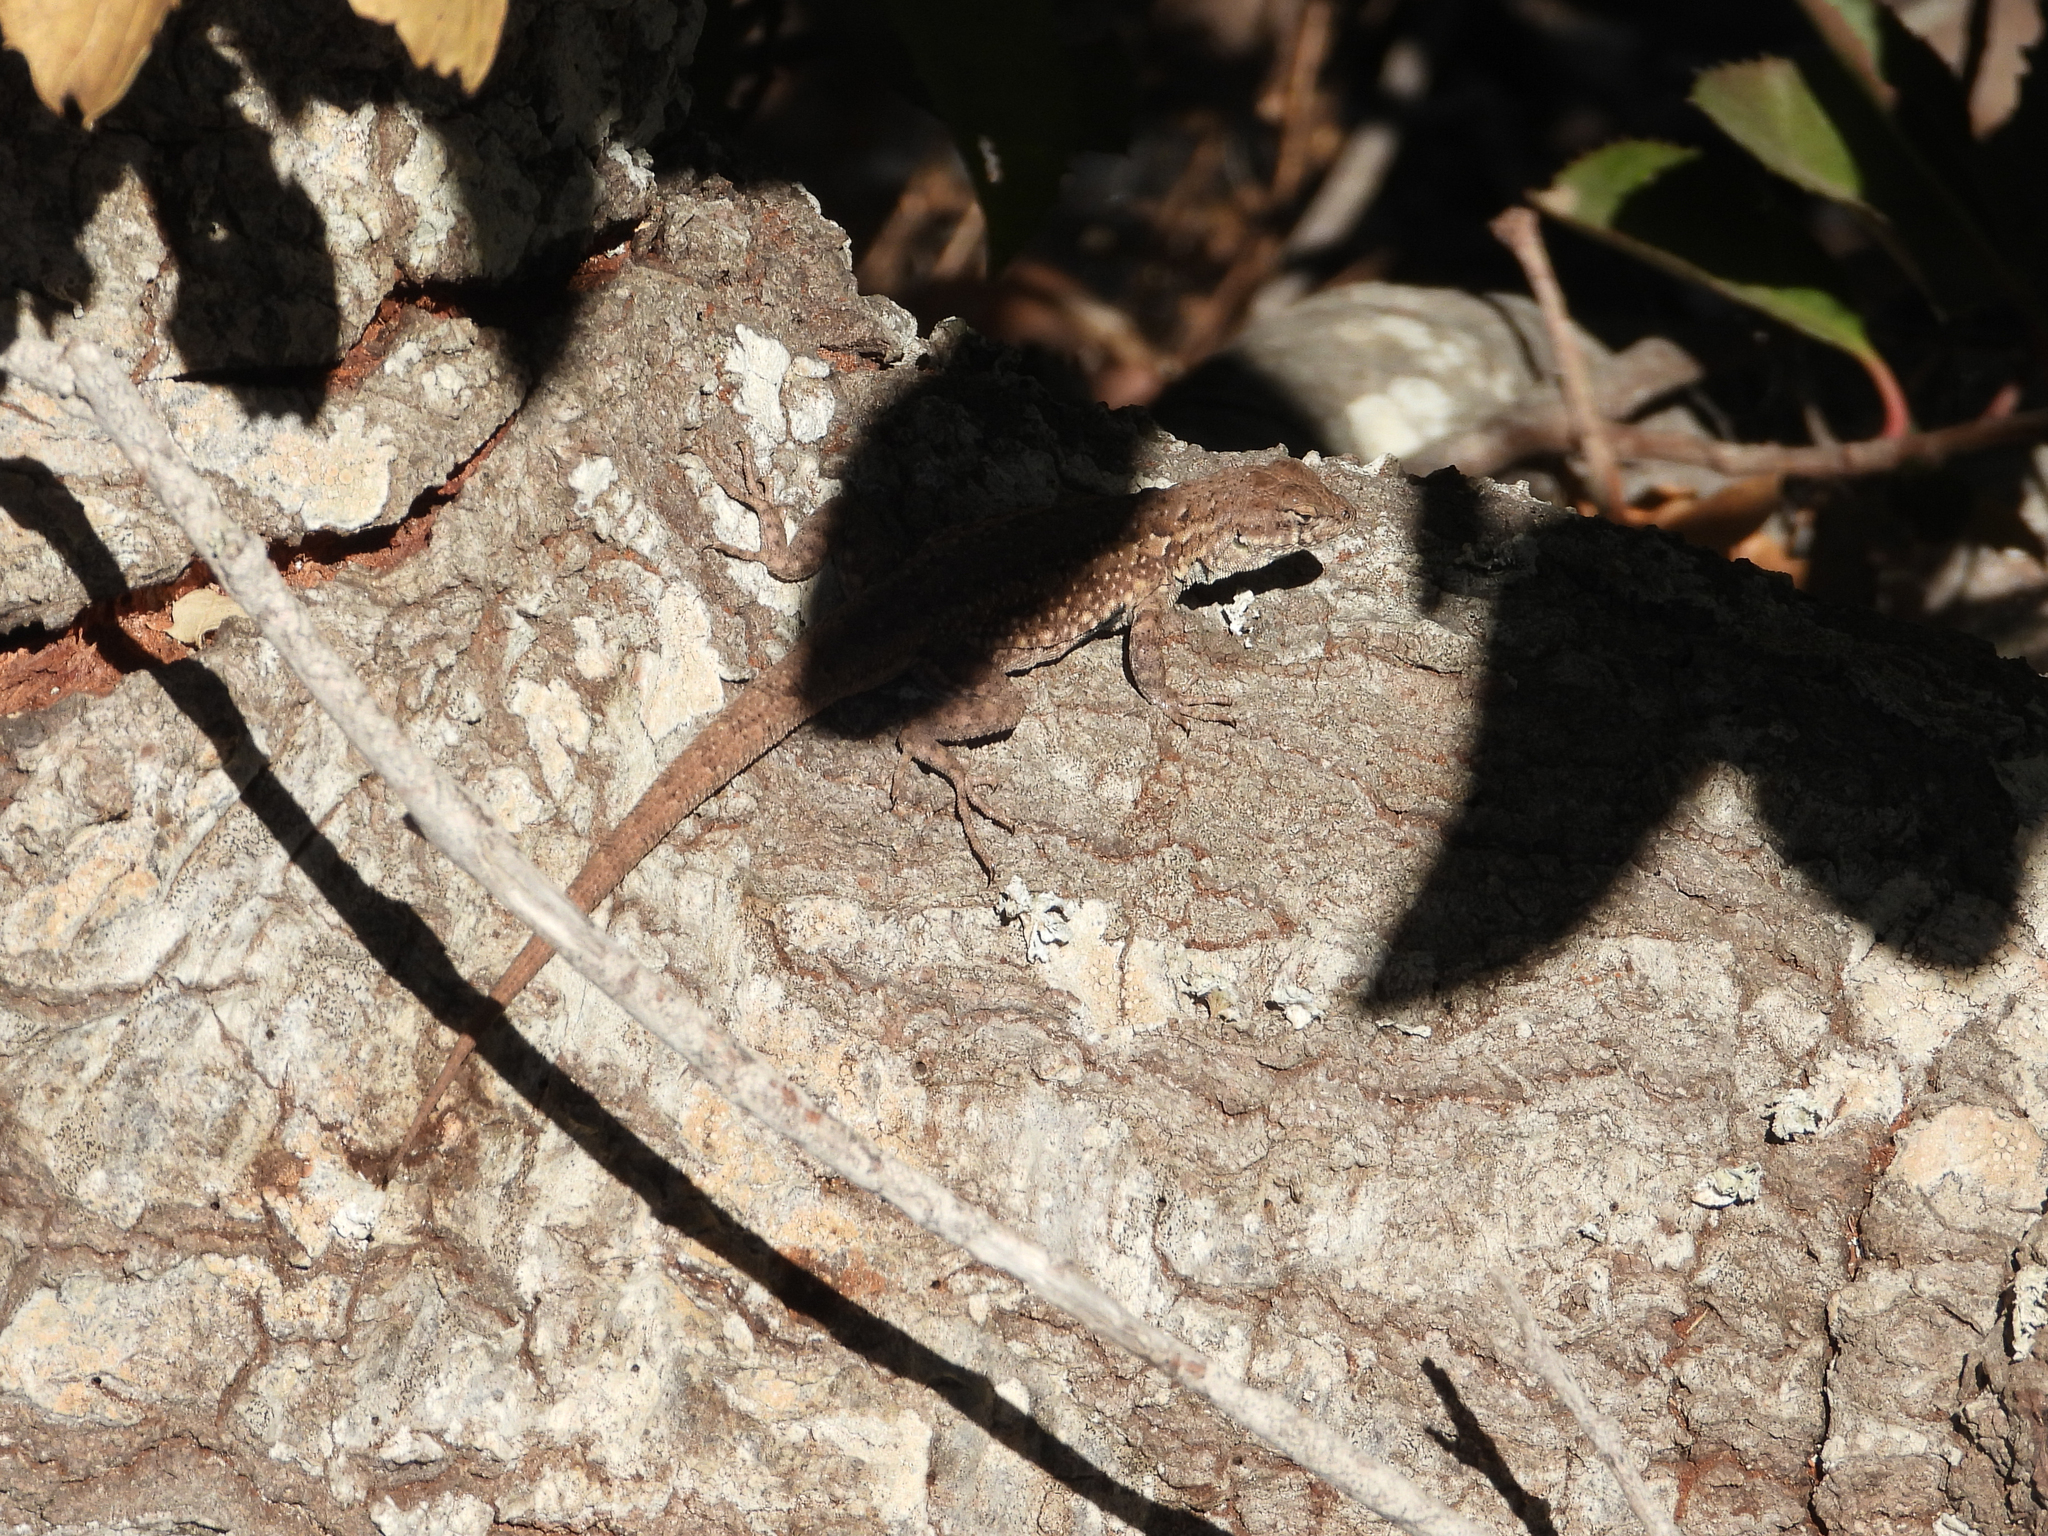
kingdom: Animalia
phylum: Chordata
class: Squamata
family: Phrynosomatidae
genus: Uta
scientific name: Uta stansburiana
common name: Side-blotched lizard
